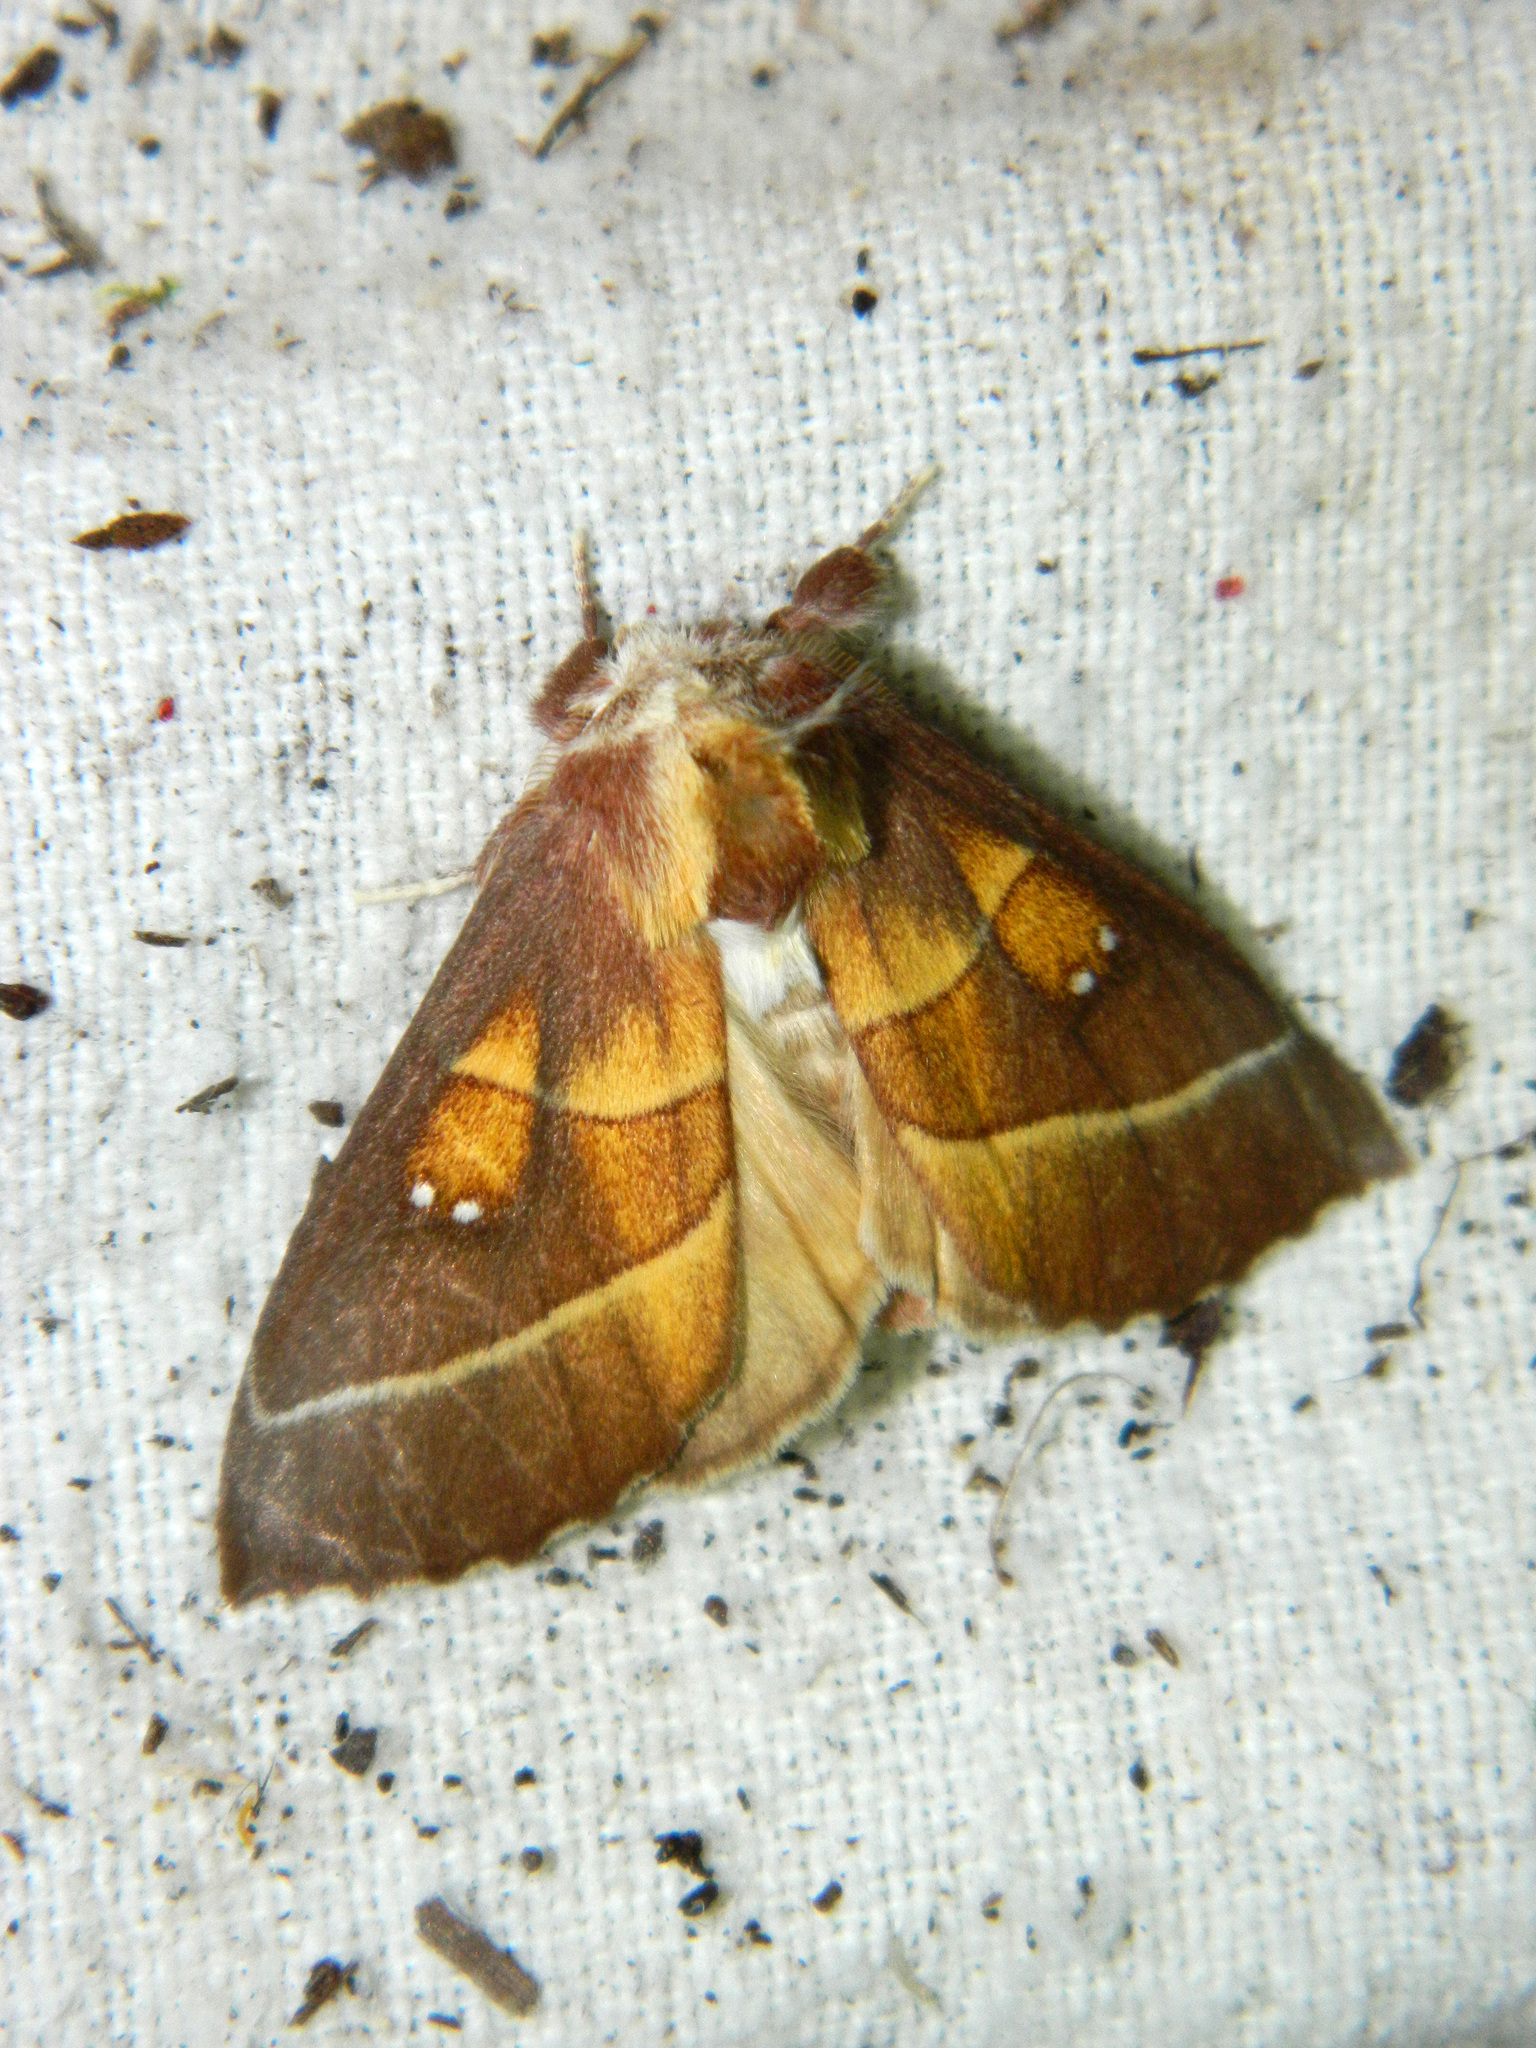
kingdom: Animalia
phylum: Arthropoda
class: Insecta
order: Lepidoptera
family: Notodontidae
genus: Nadata
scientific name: Nadata gibbosa
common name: White-dotted prominent
